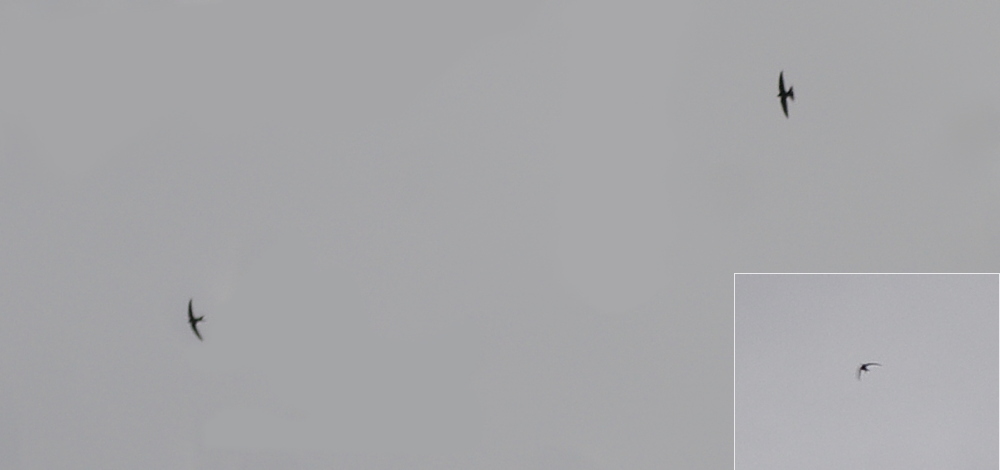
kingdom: Animalia
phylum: Chordata
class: Aves
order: Apodiformes
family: Apodidae
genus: Apus
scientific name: Apus apus
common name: Common swift
